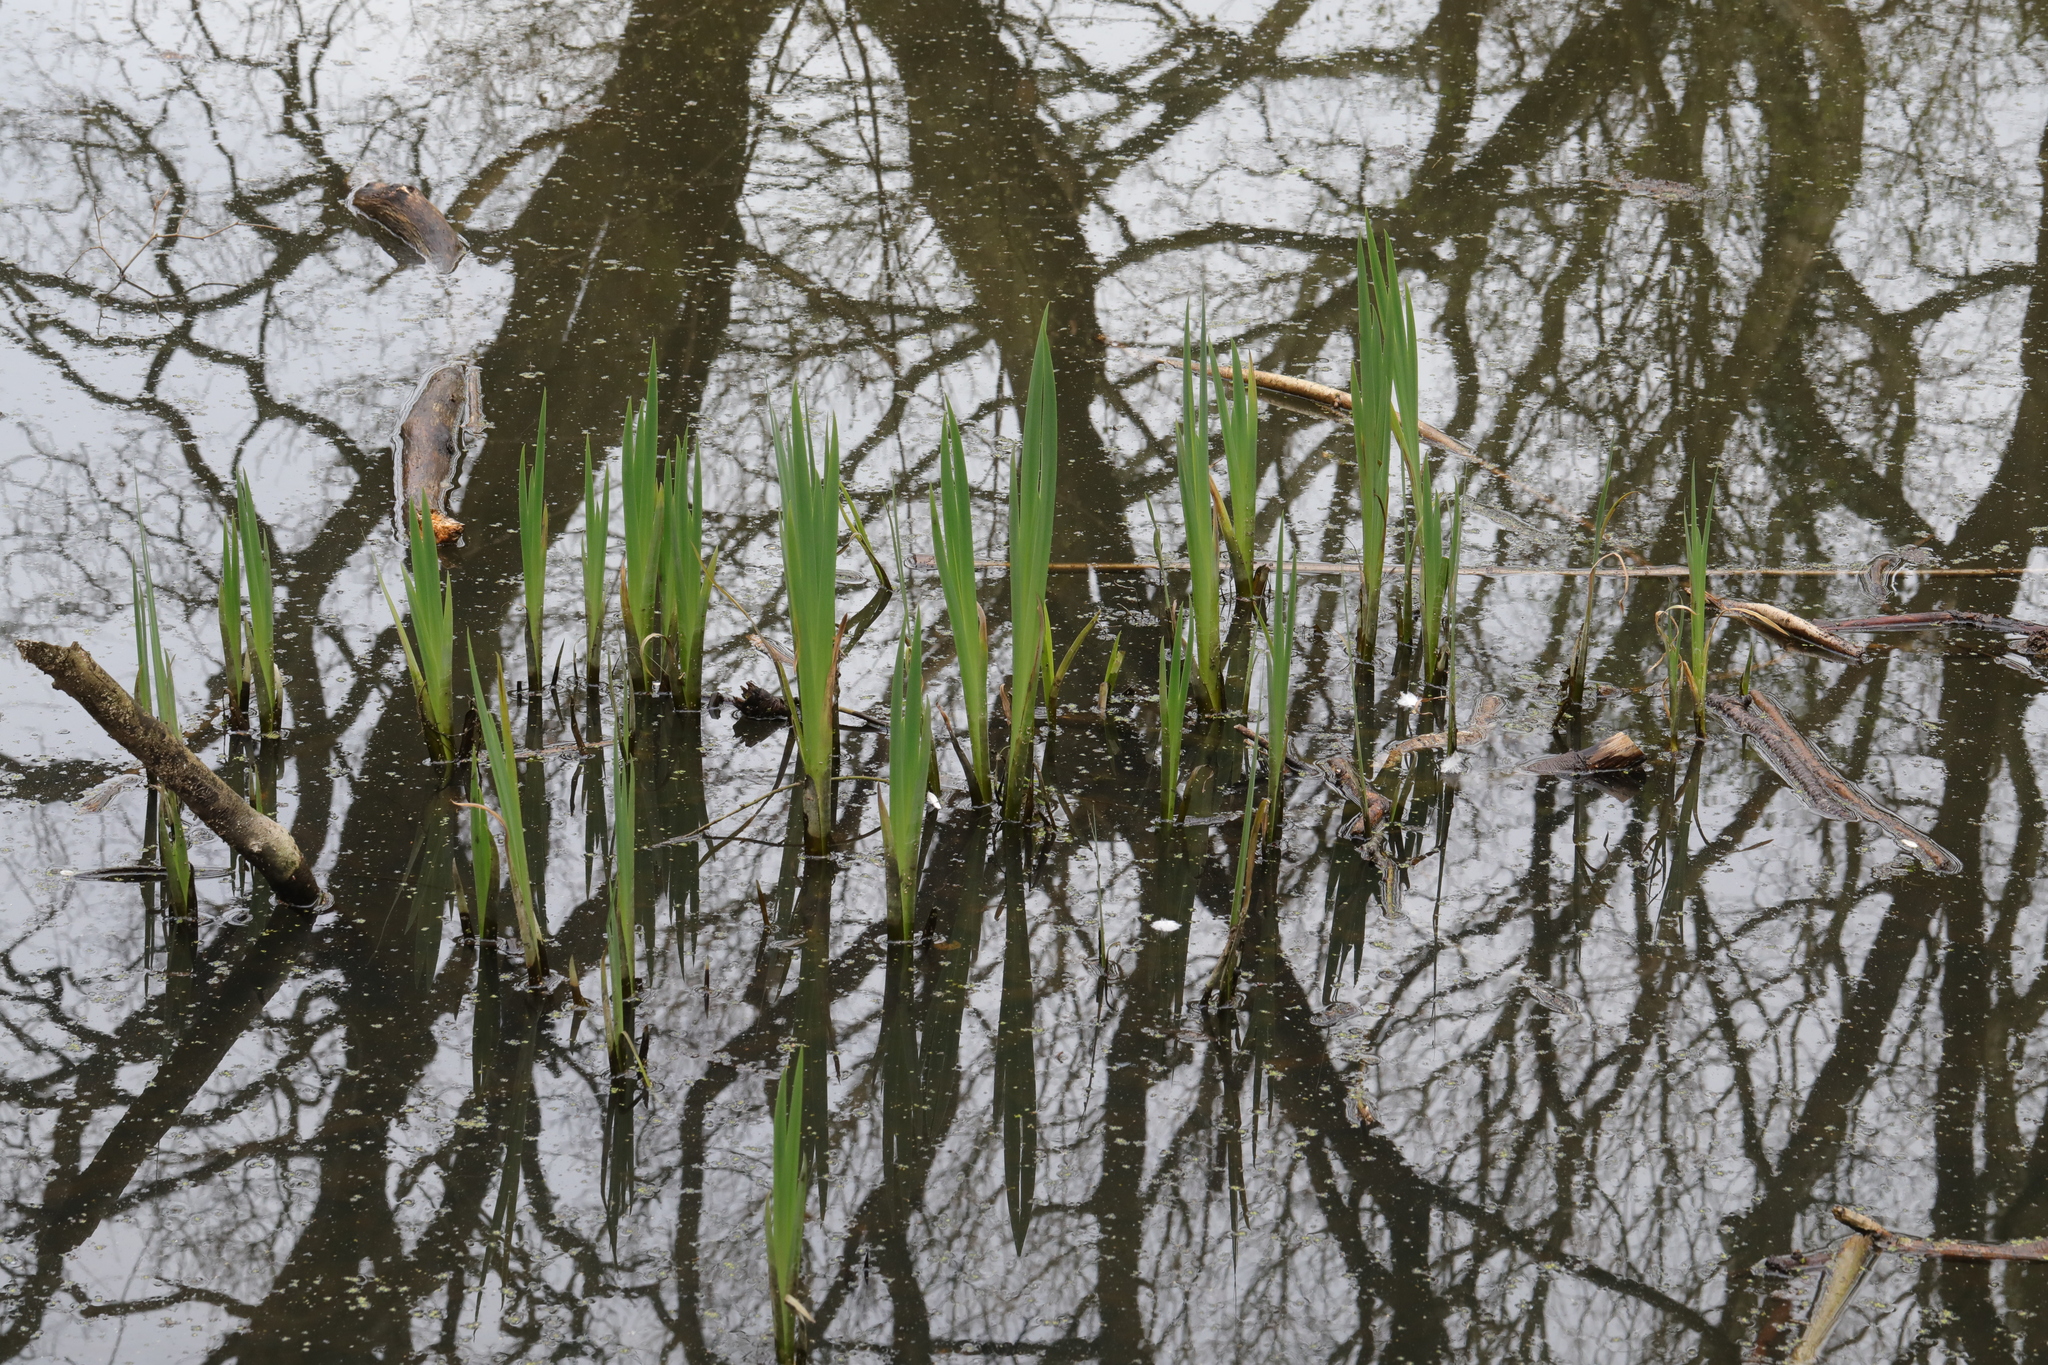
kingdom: Plantae
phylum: Tracheophyta
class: Liliopsida
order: Asparagales
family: Iridaceae
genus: Iris
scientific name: Iris pseudacorus
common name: Yellow flag
